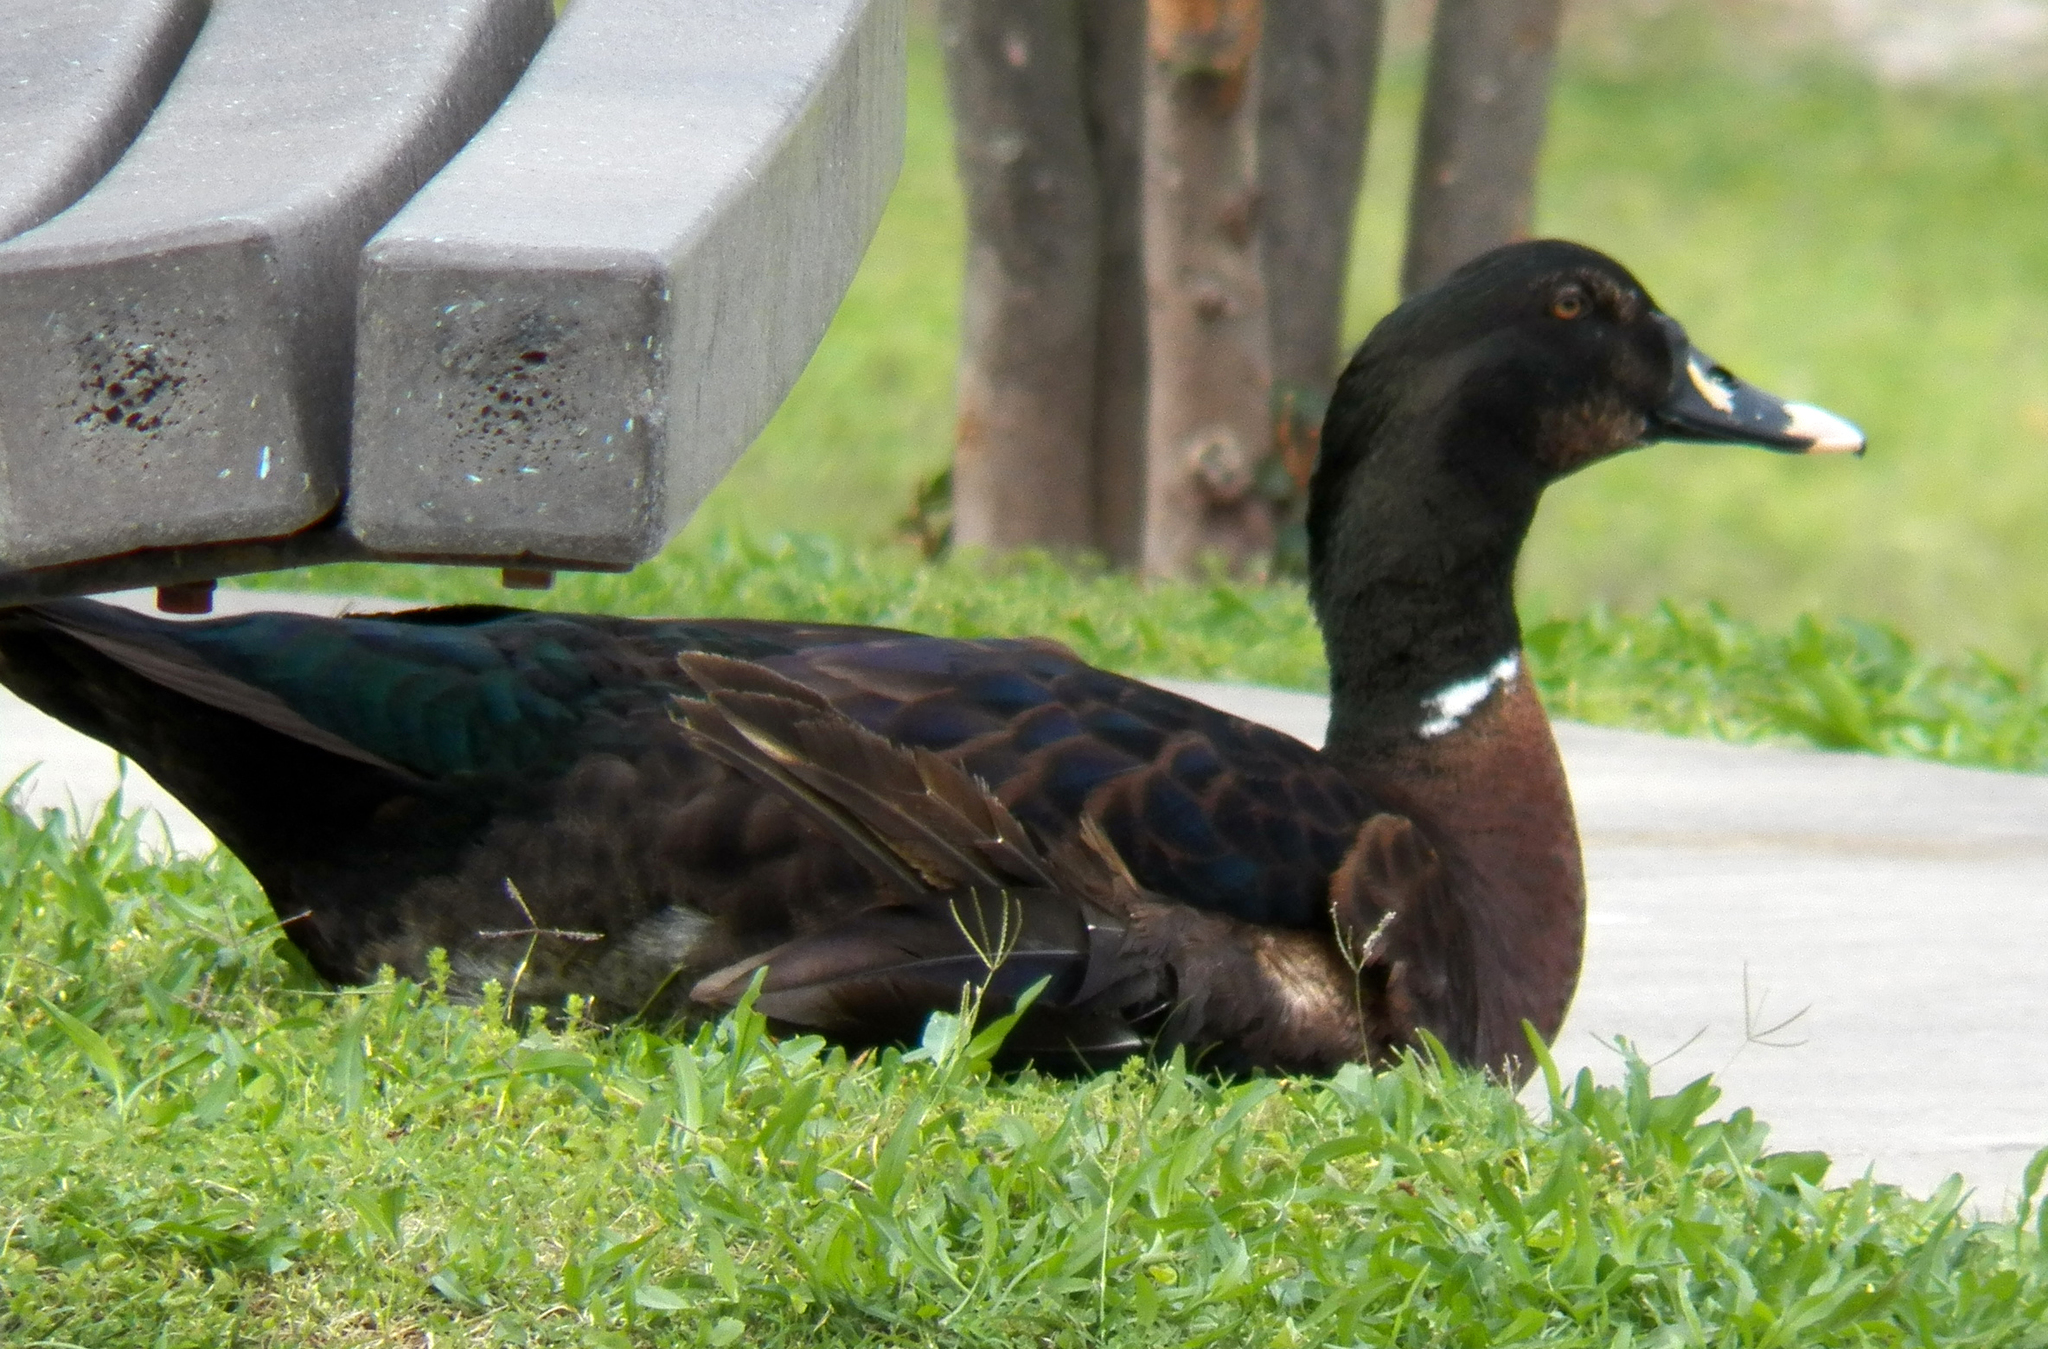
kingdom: Animalia
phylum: Chordata
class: Aves
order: Anseriformes
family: Anatidae
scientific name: Anatidae
